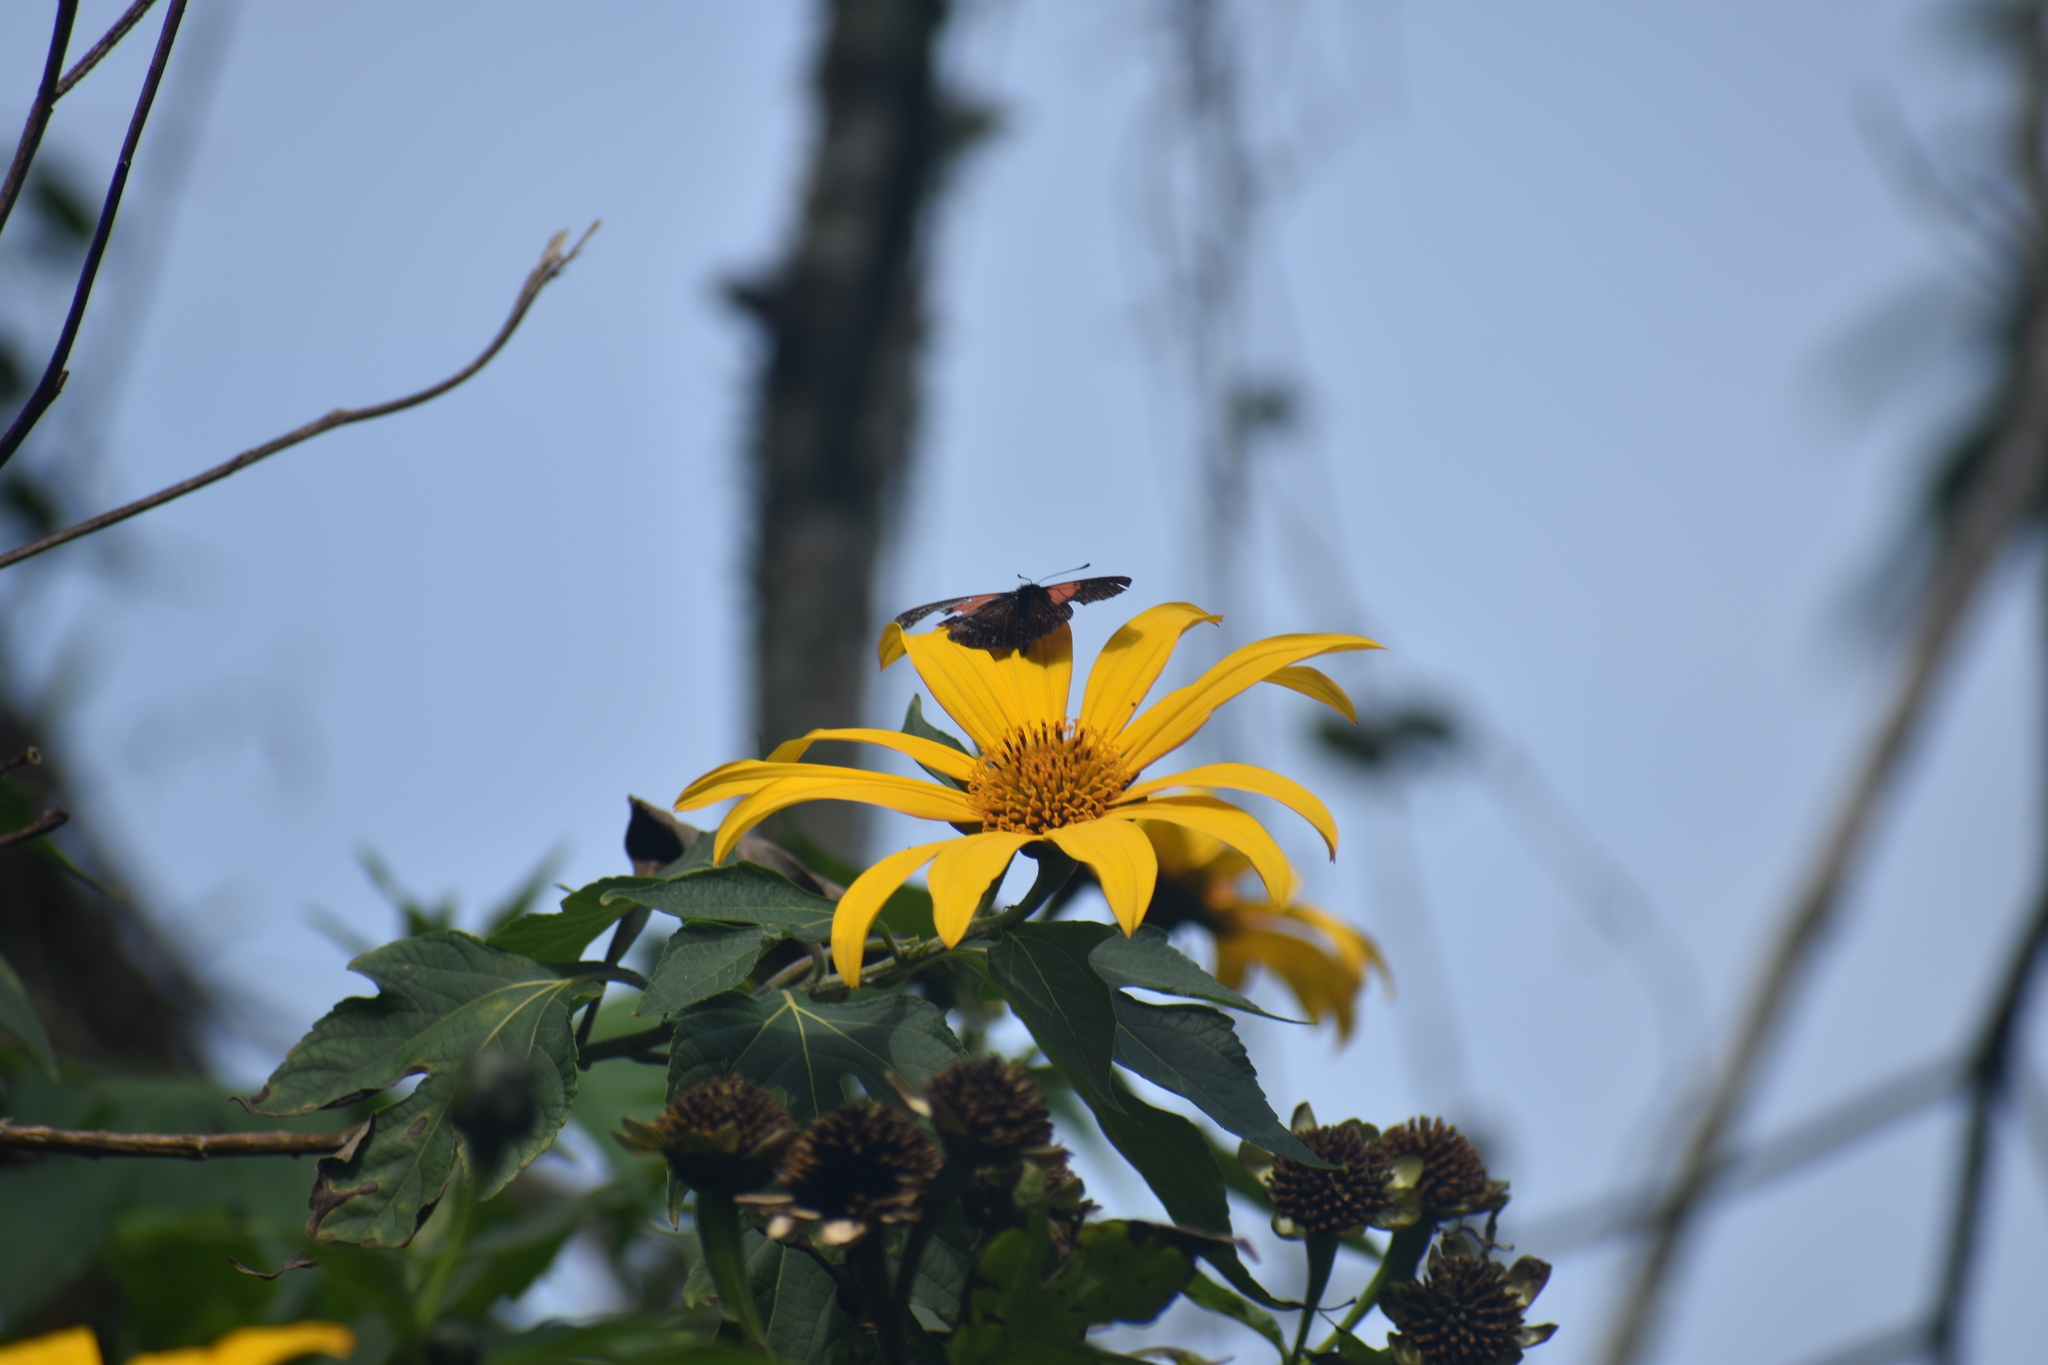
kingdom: Plantae
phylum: Tracheophyta
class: Magnoliopsida
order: Asterales
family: Asteraceae
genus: Tithonia
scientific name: Tithonia diversifolia
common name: Tree marigold
